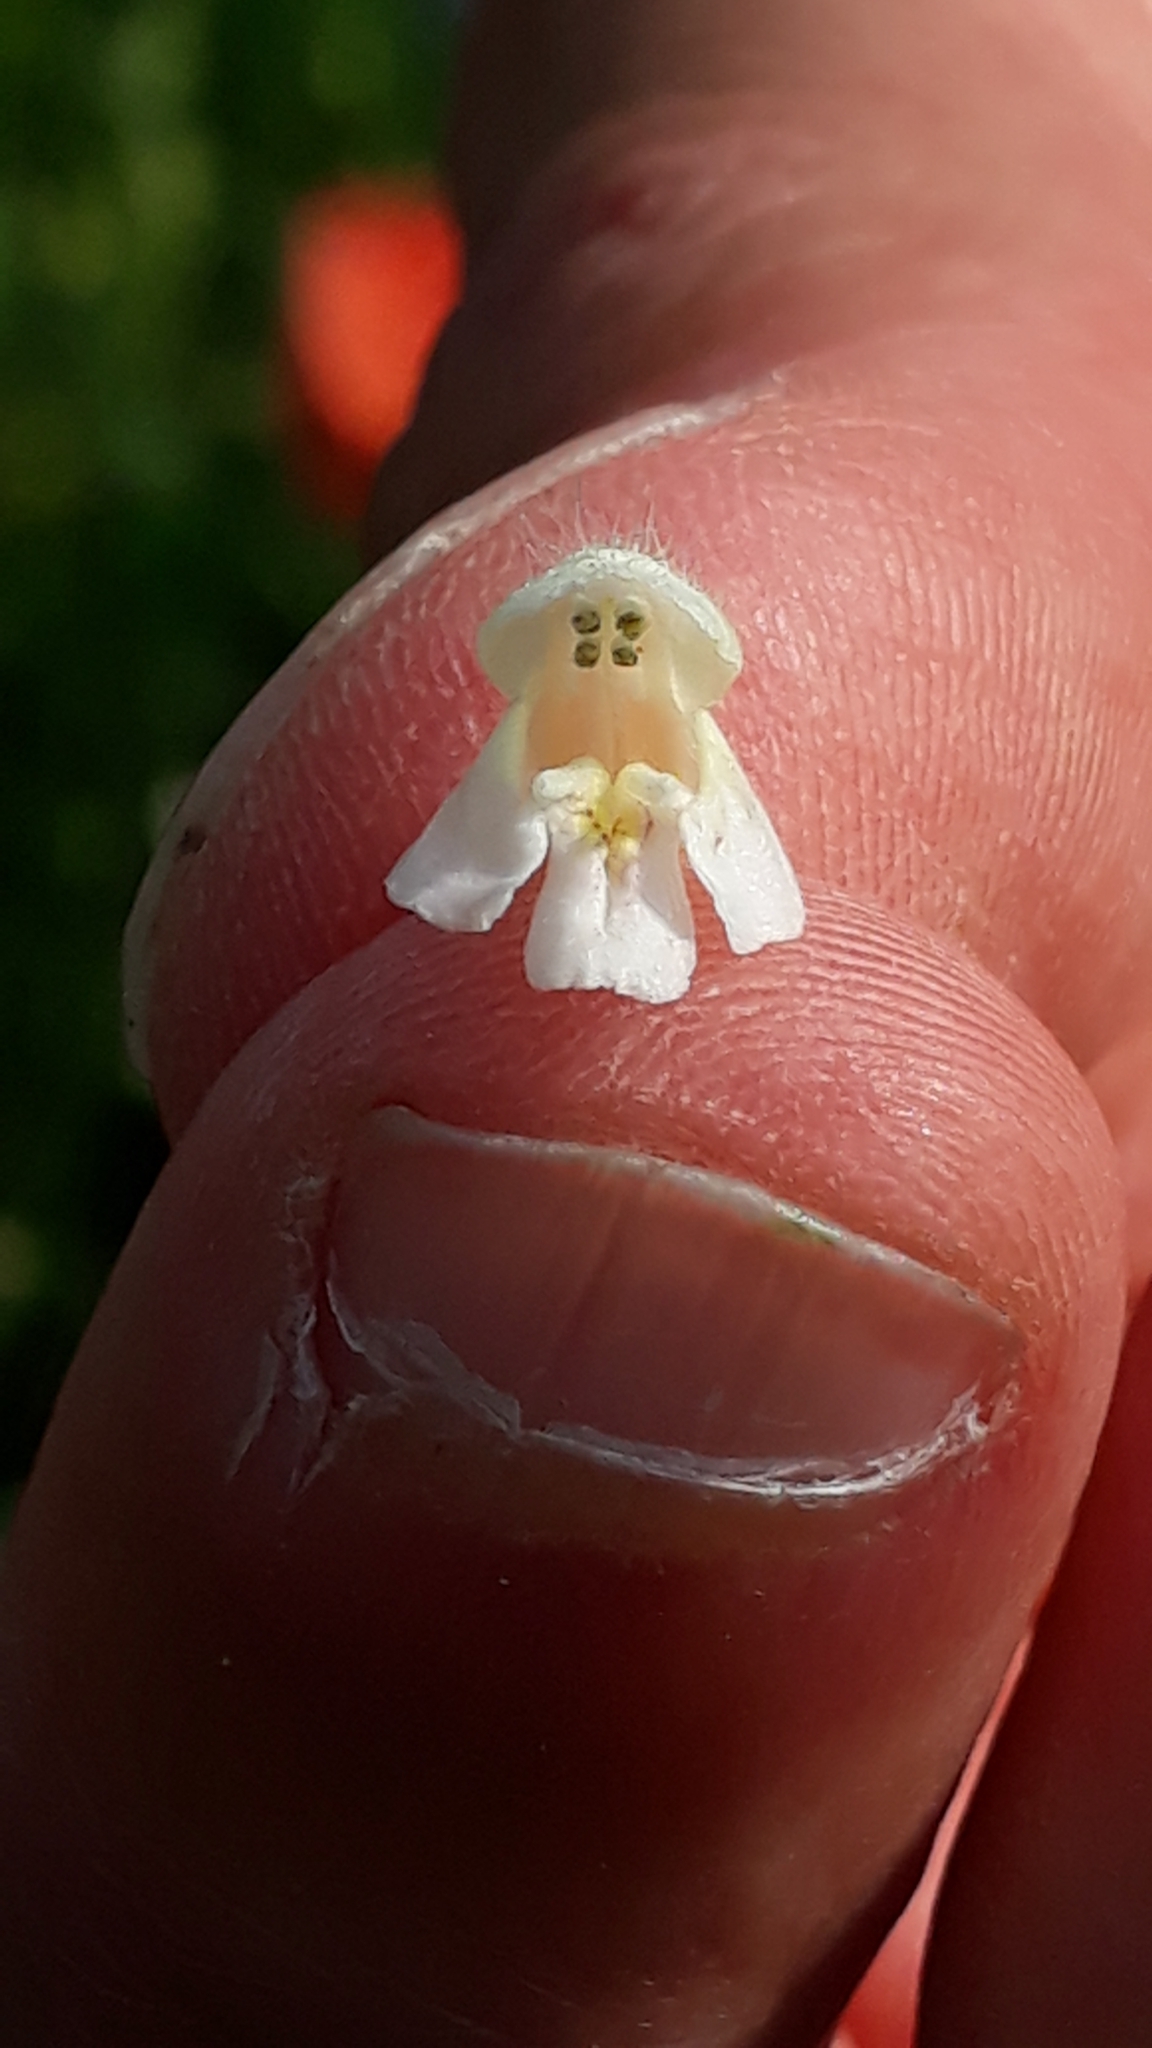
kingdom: Plantae
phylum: Tracheophyta
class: Magnoliopsida
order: Lamiales
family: Lamiaceae
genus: Galeopsis
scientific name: Galeopsis tetrahit
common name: Common hemp-nettle
